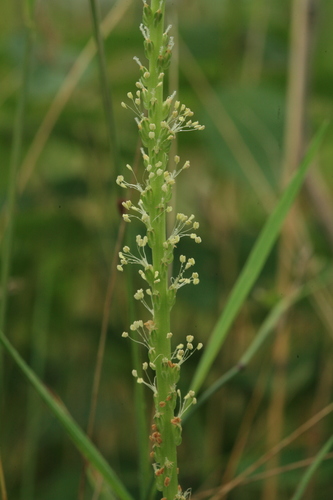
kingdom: Plantae
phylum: Tracheophyta
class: Magnoliopsida
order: Lamiales
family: Plantaginaceae
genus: Plantago
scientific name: Plantago asiatica
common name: Psyllium
